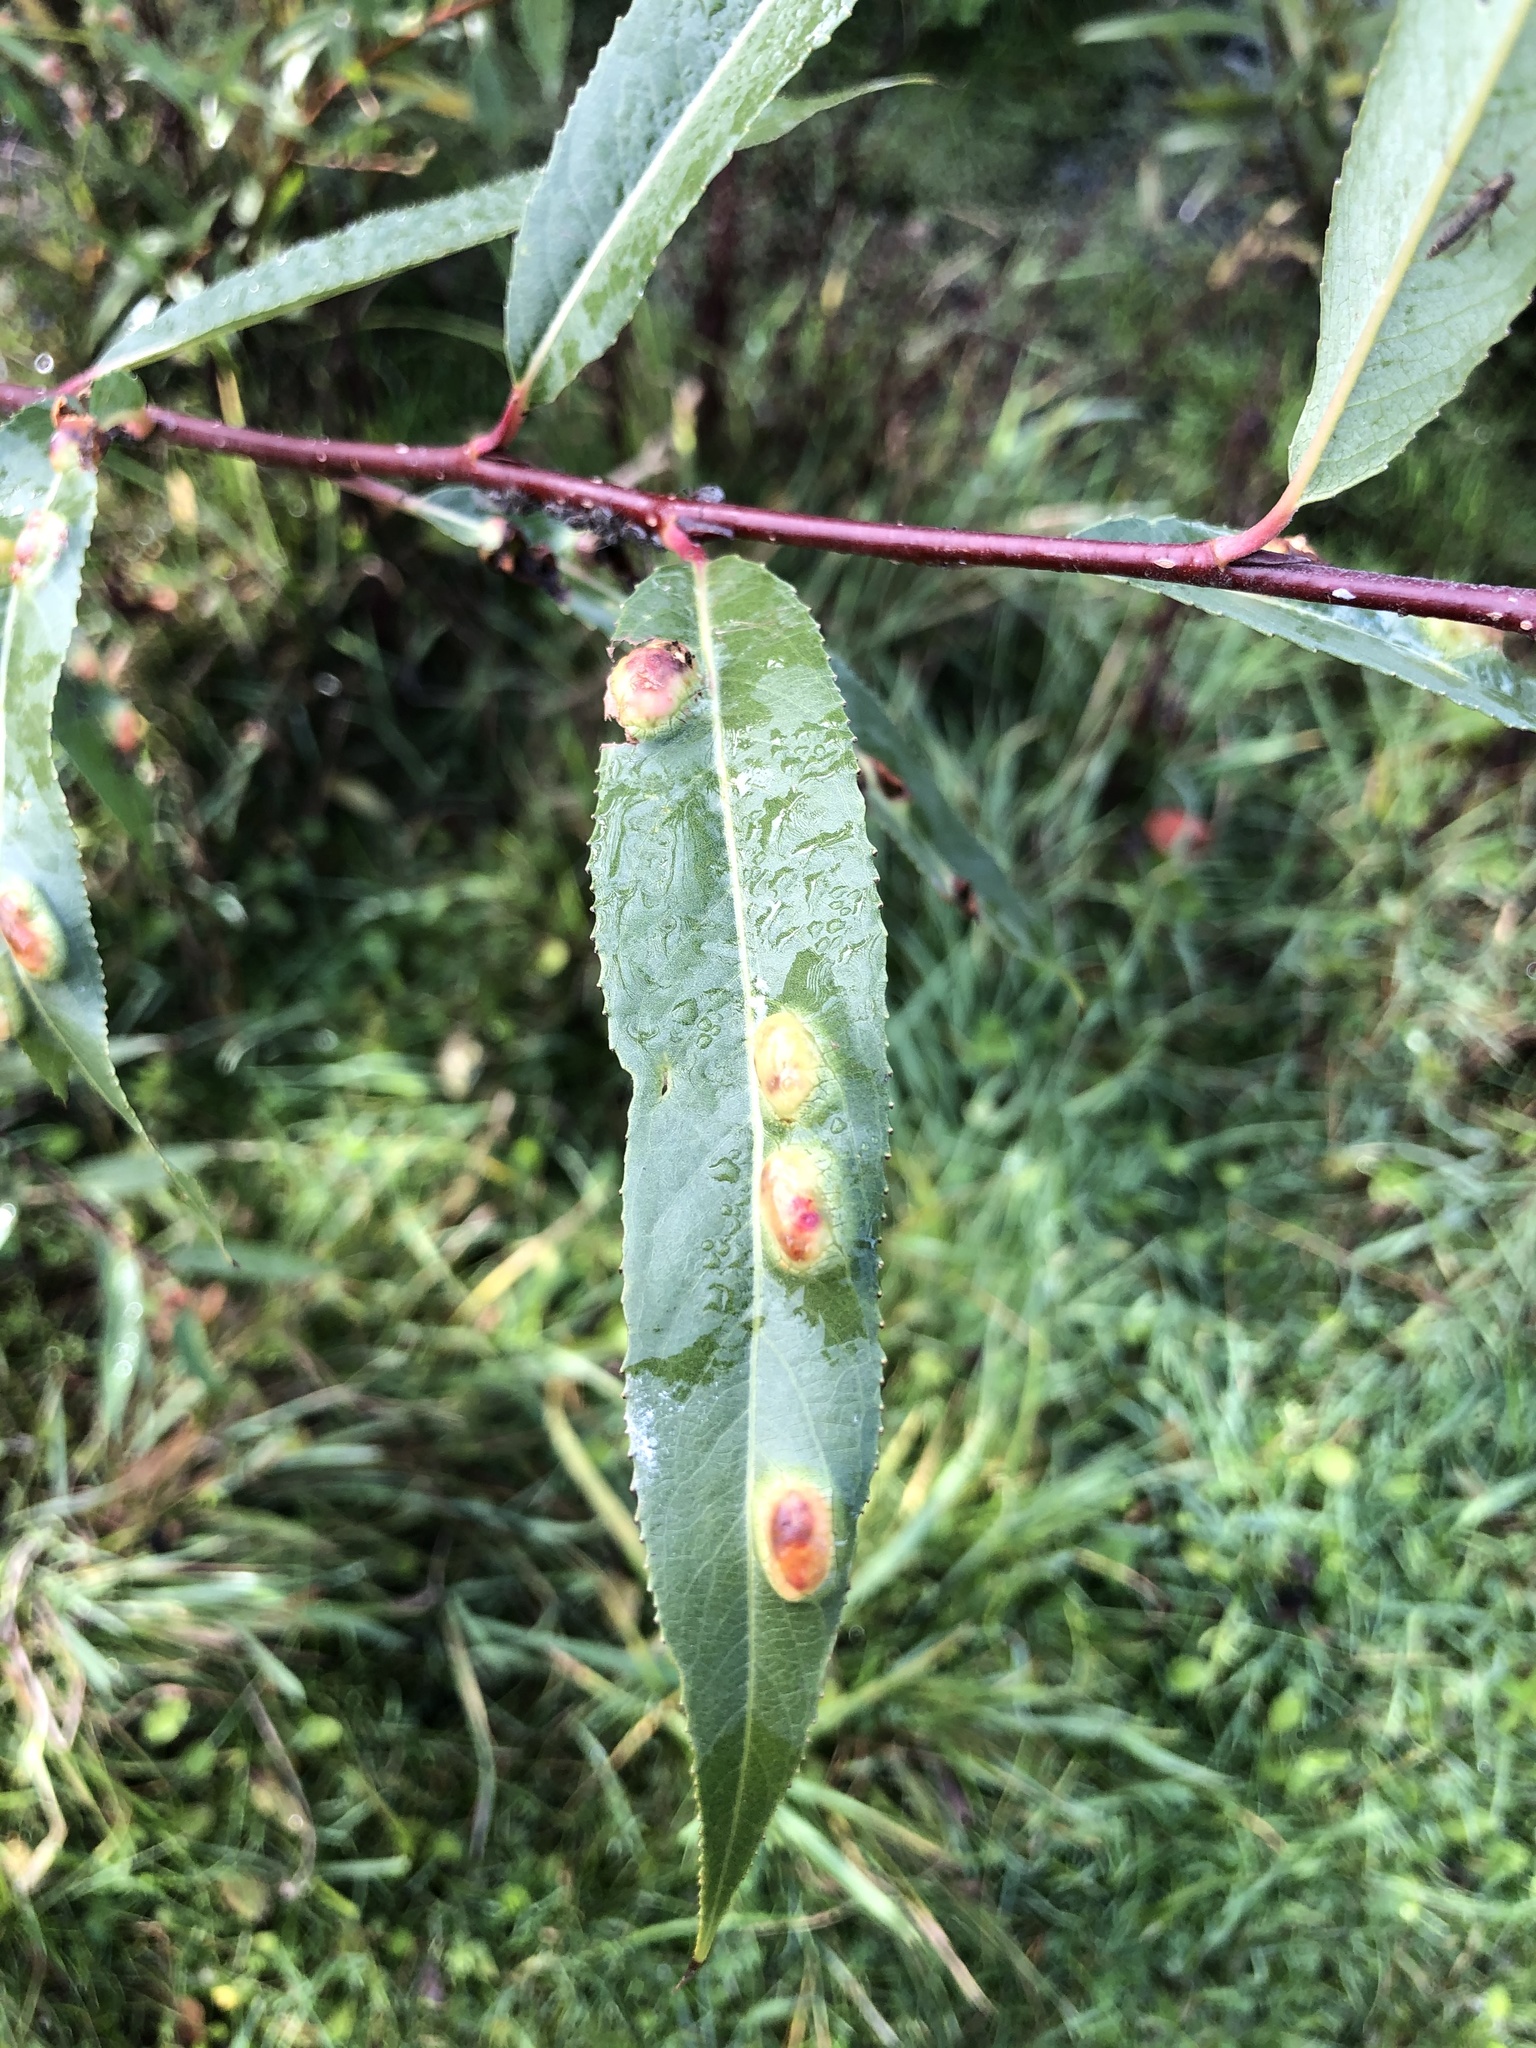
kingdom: Animalia
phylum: Arthropoda
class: Insecta
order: Hymenoptera
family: Tenthredinidae
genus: Pontania
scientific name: Pontania proxima
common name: Common sawfly
